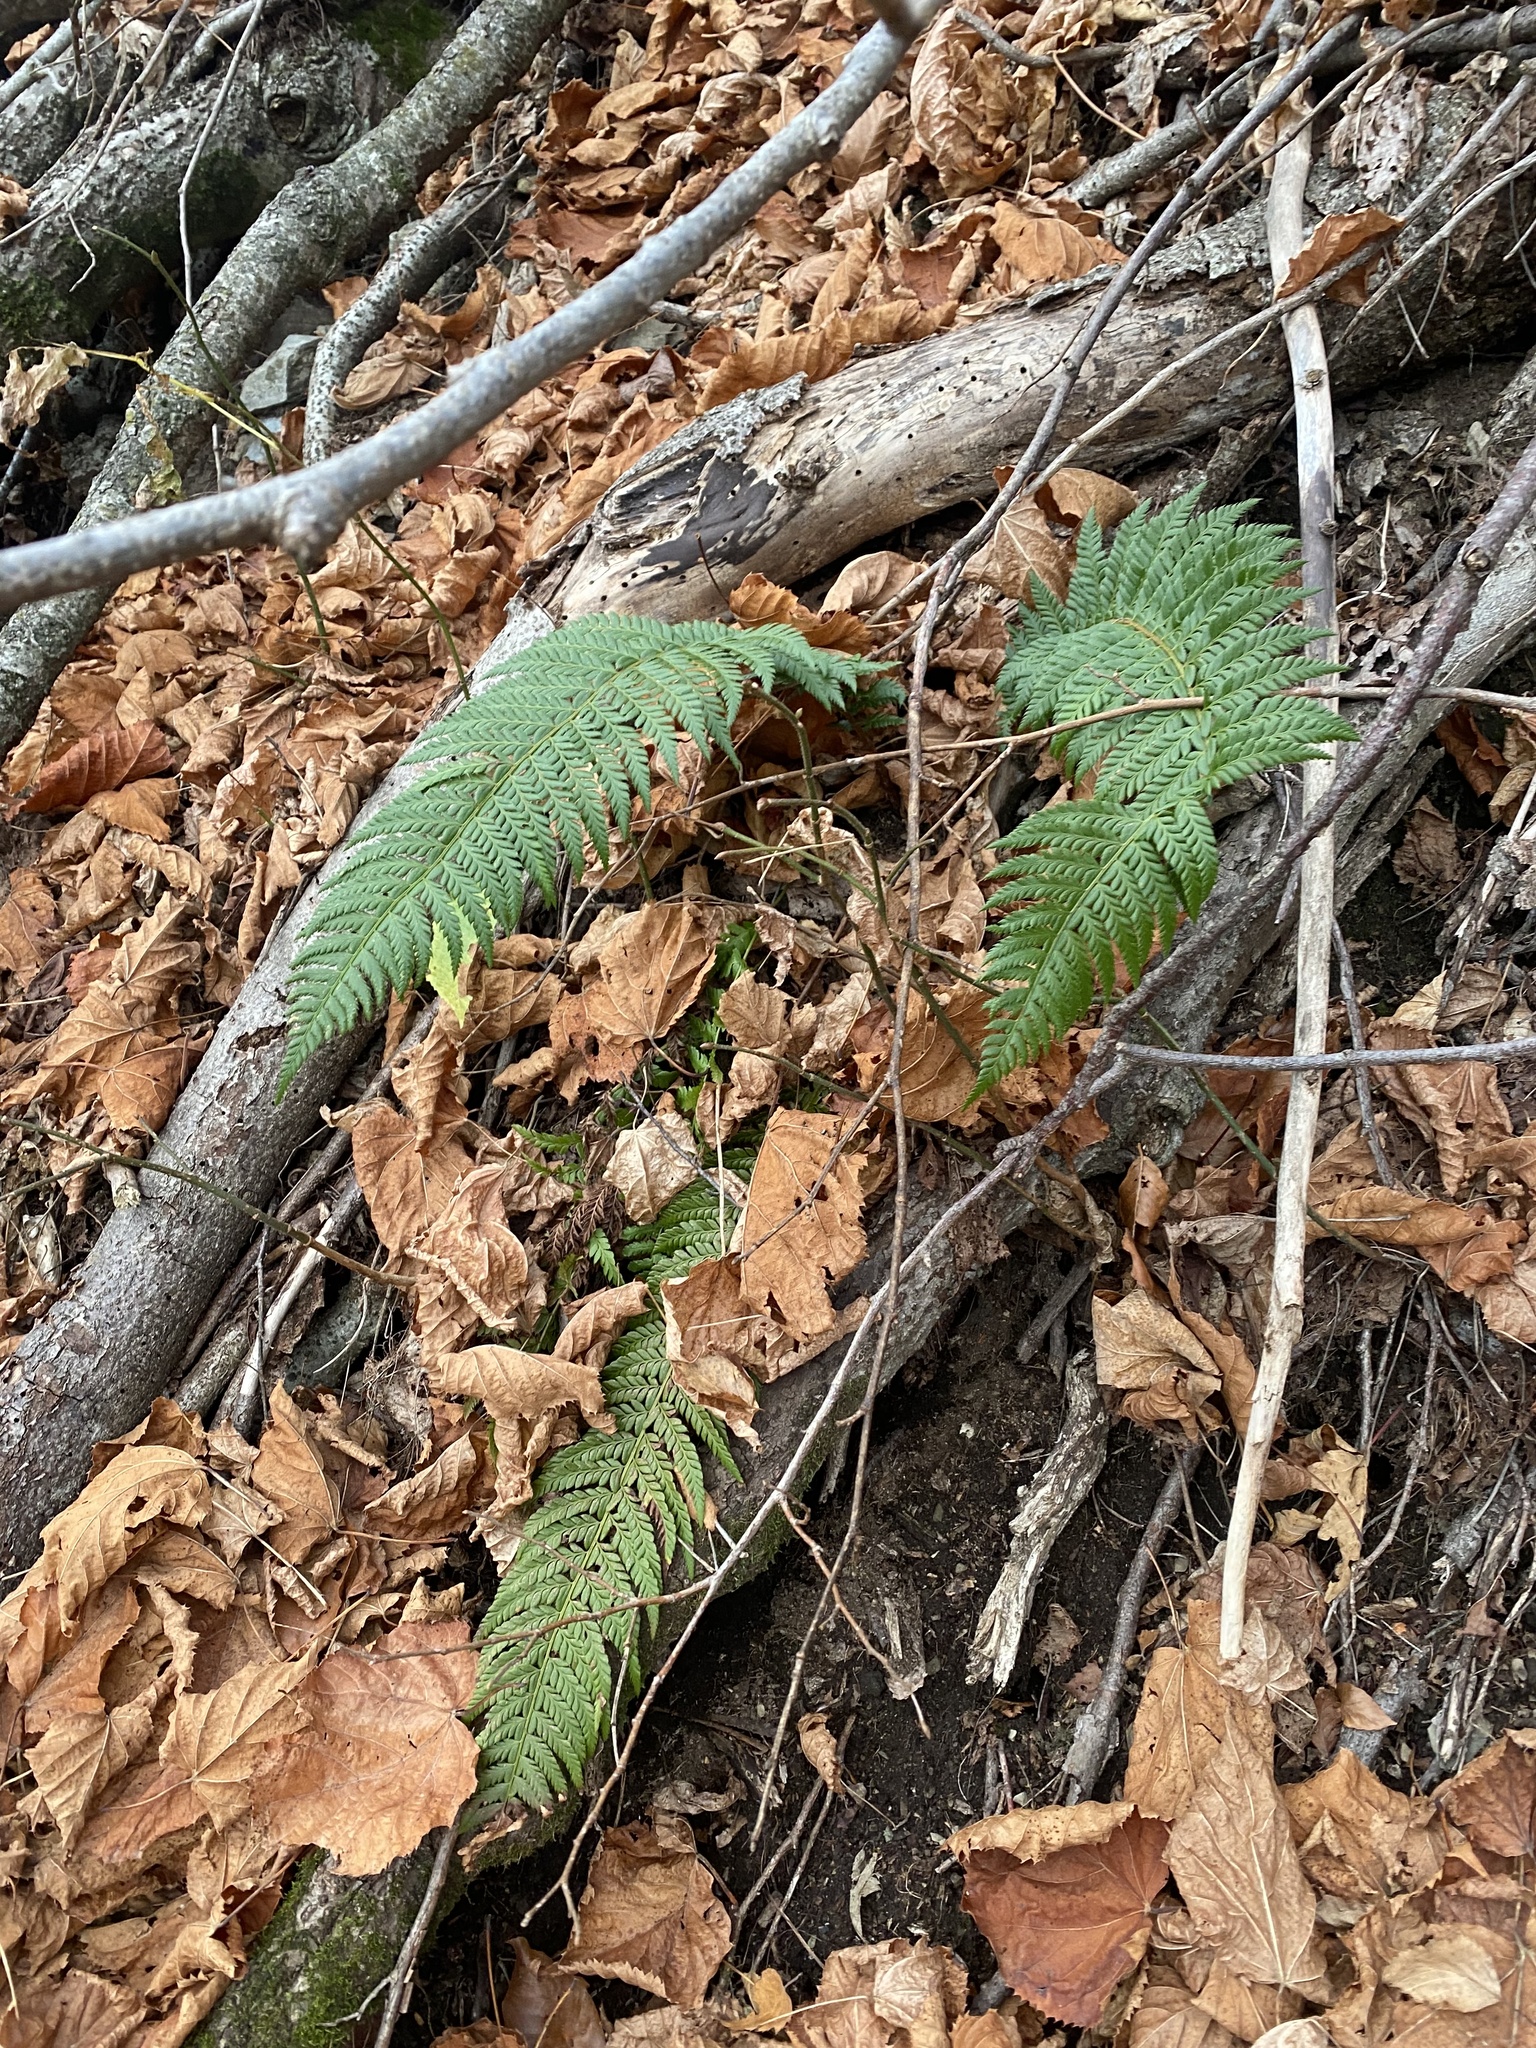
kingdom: Plantae
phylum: Tracheophyta
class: Polypodiopsida
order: Polypodiales
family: Dryopteridaceae
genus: Polystichum
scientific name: Polystichum aculeatum
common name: Hard shield-fern
